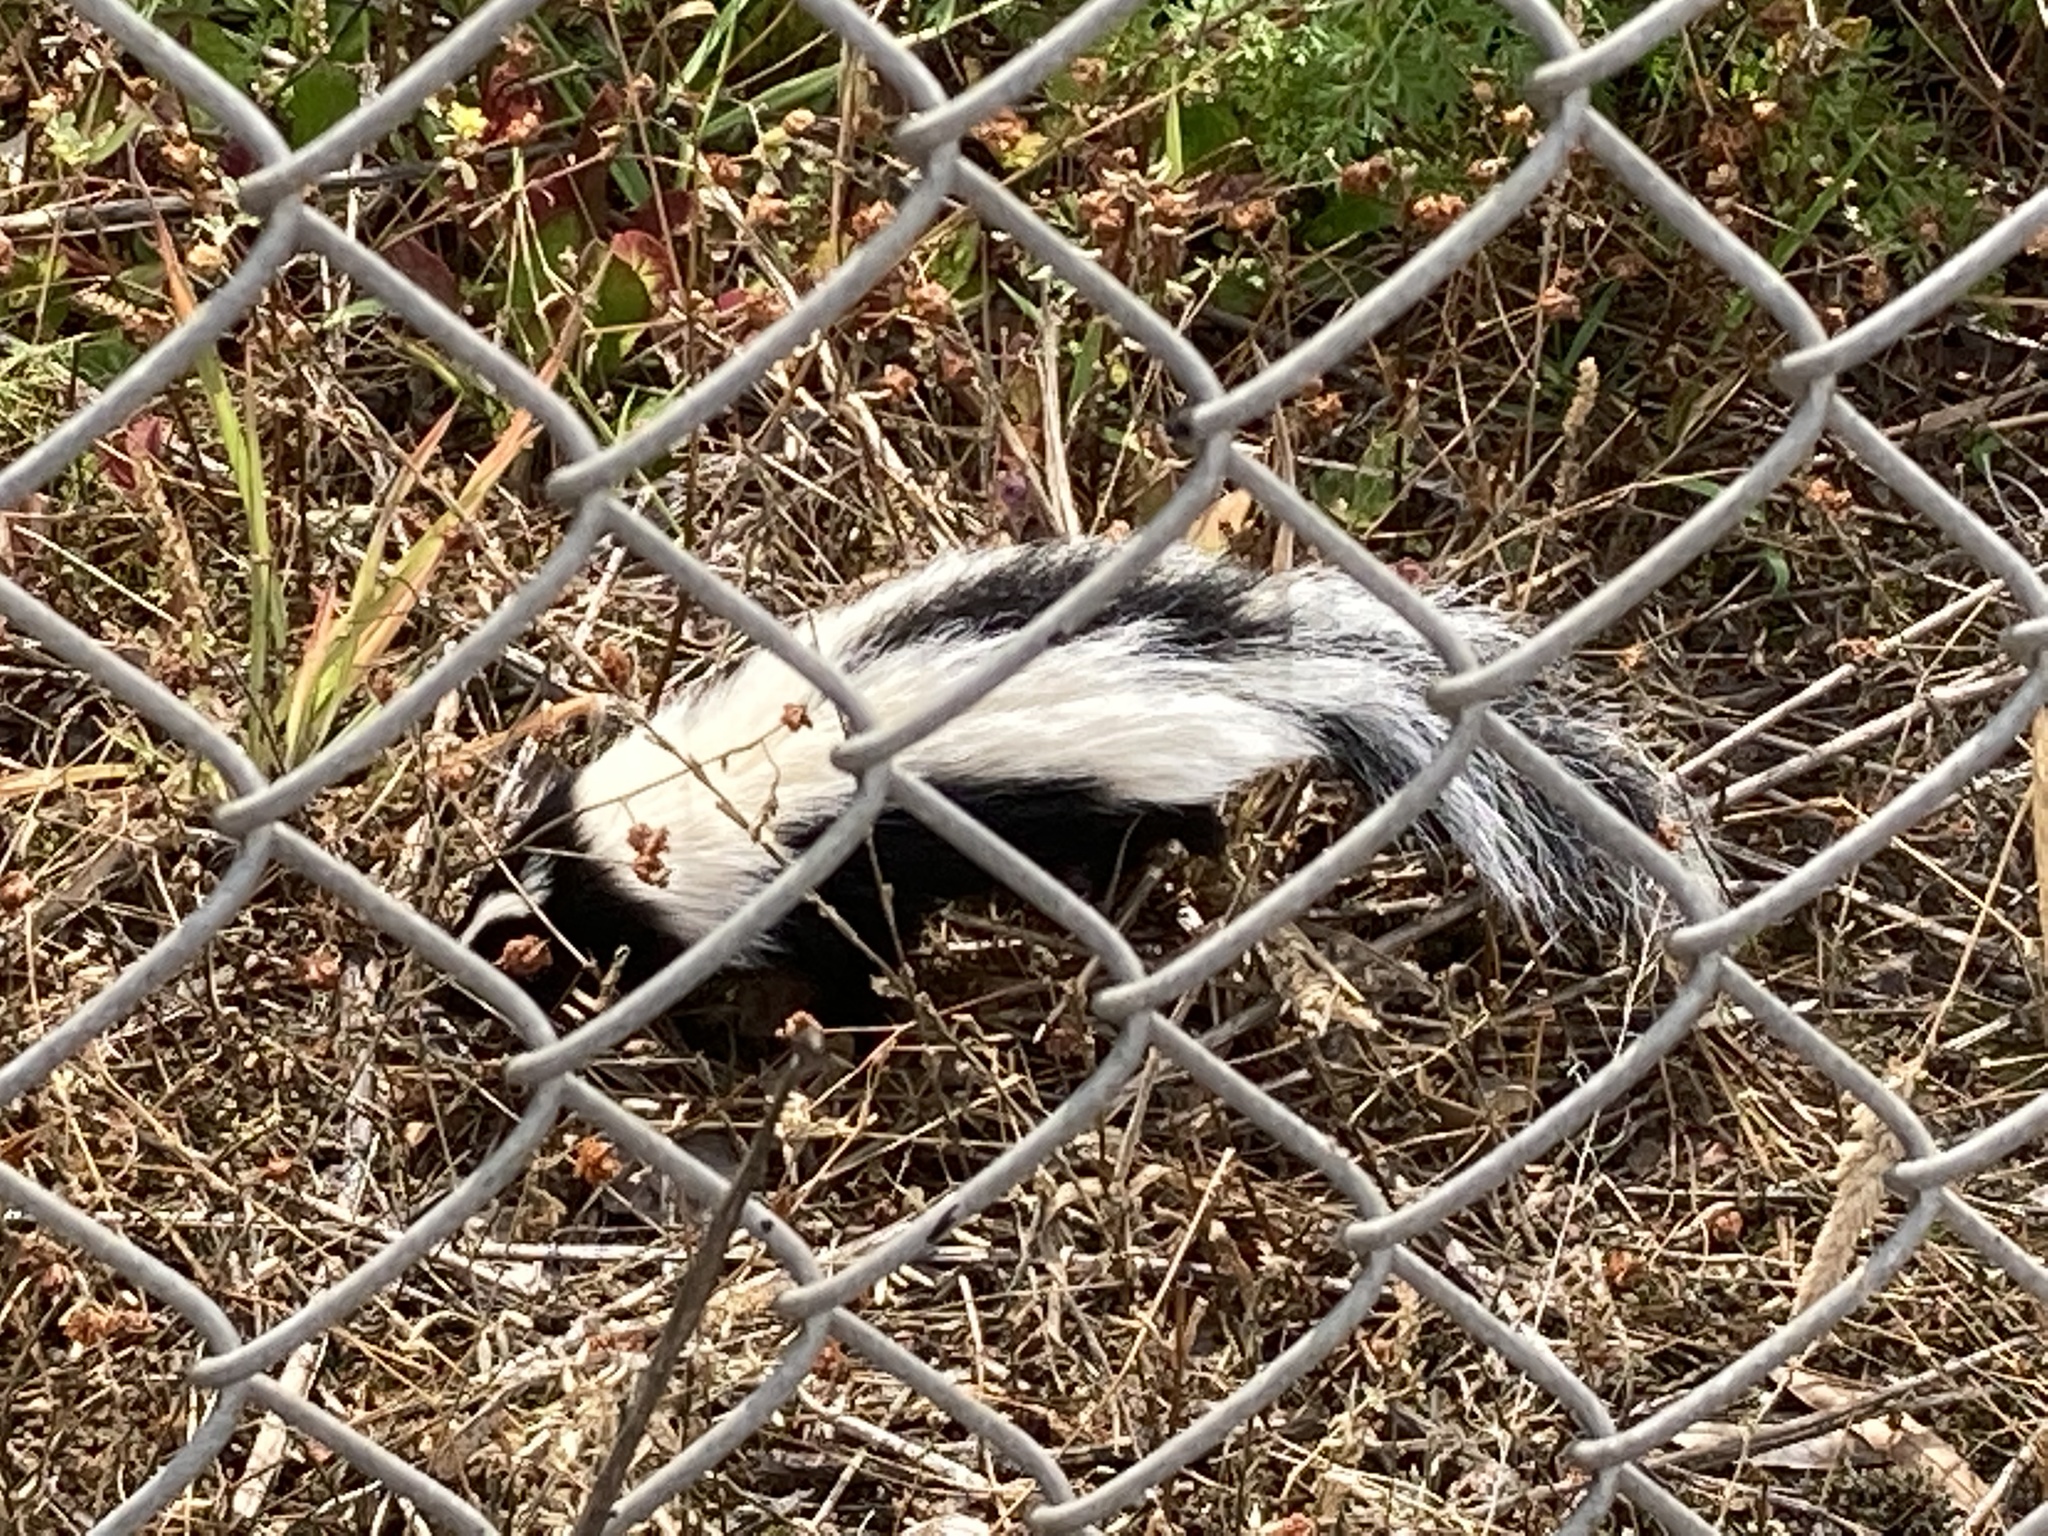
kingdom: Animalia
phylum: Chordata
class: Mammalia
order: Carnivora
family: Mephitidae
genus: Mephitis
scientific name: Mephitis mephitis
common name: Striped skunk
